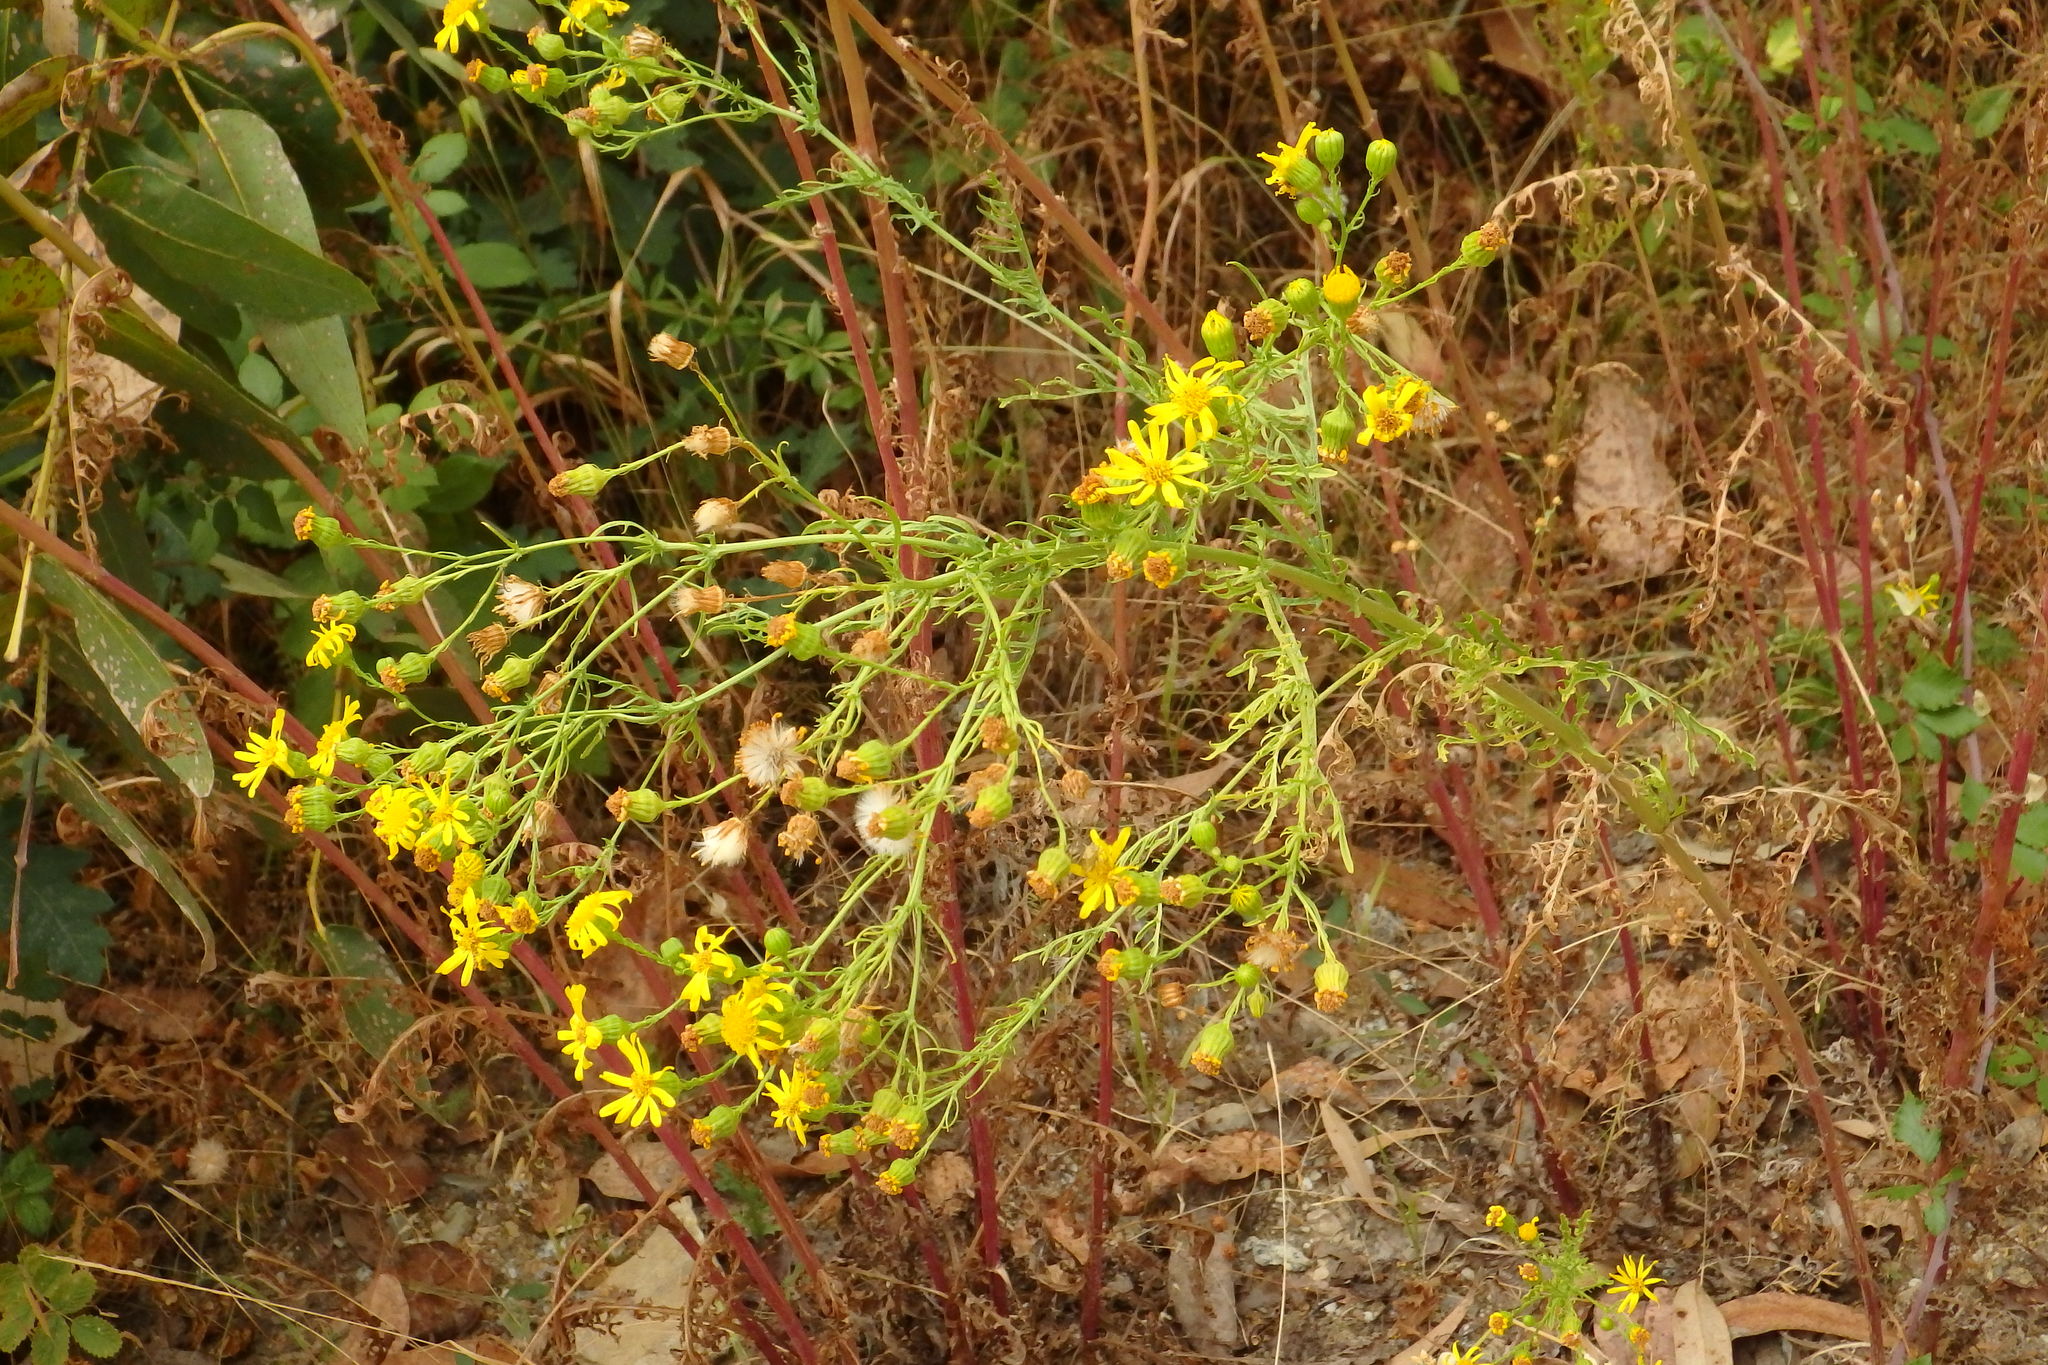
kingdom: Plantae
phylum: Tracheophyta
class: Magnoliopsida
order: Asterales
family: Asteraceae
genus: Jacobaea
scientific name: Jacobaea vulgaris
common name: Stinking willie
